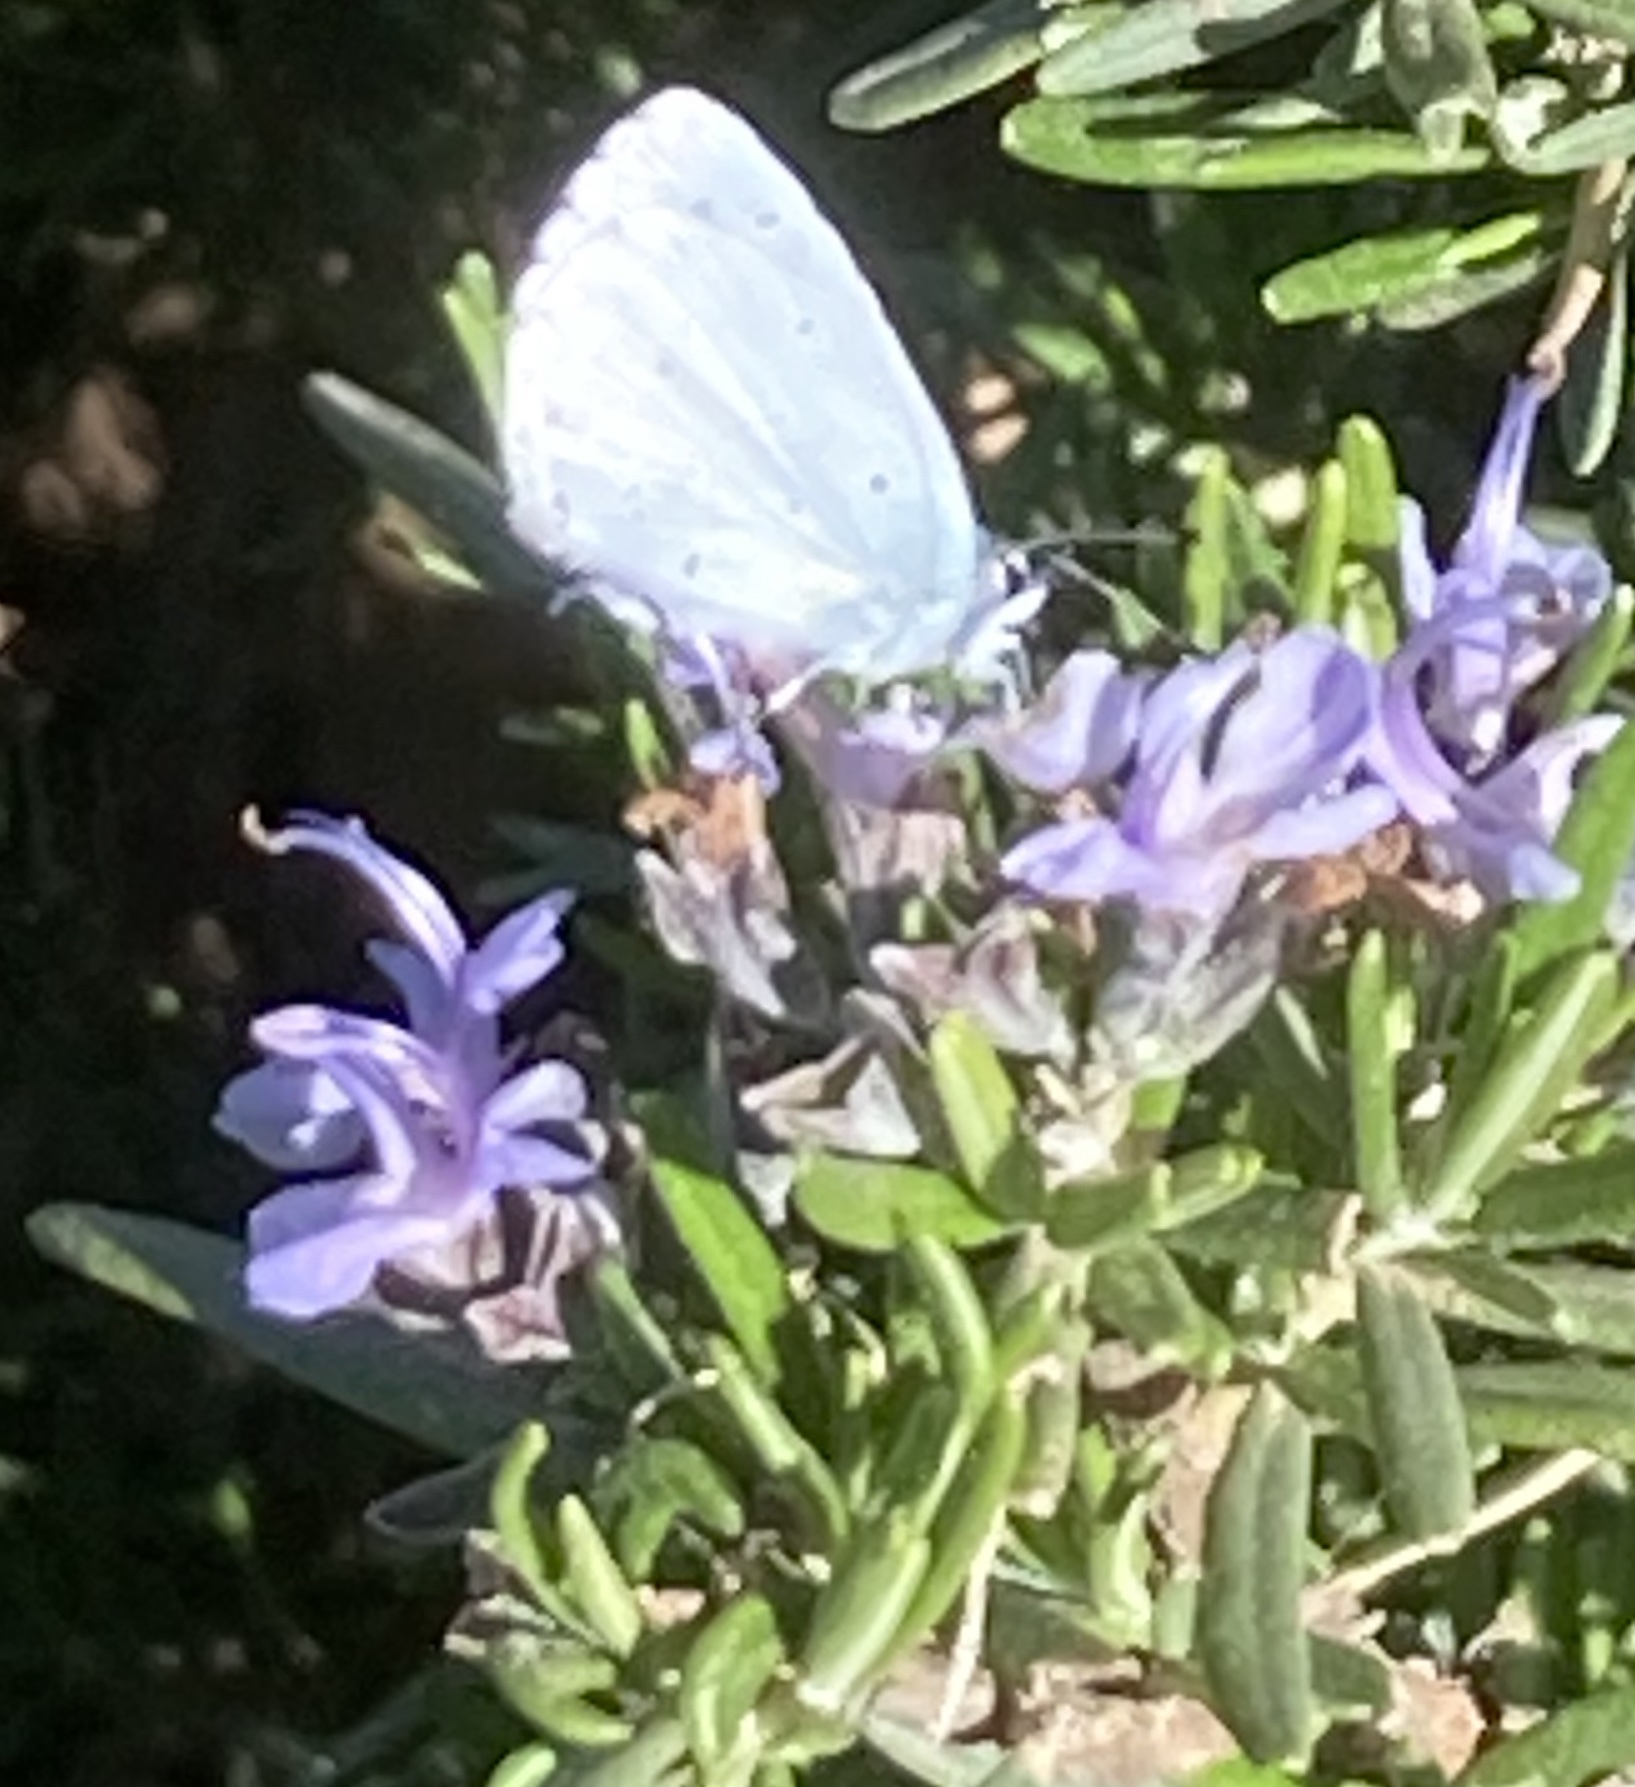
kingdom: Animalia
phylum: Arthropoda
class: Insecta
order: Lepidoptera
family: Lycaenidae
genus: Celastrina
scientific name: Celastrina argiolus
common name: Holly blue
